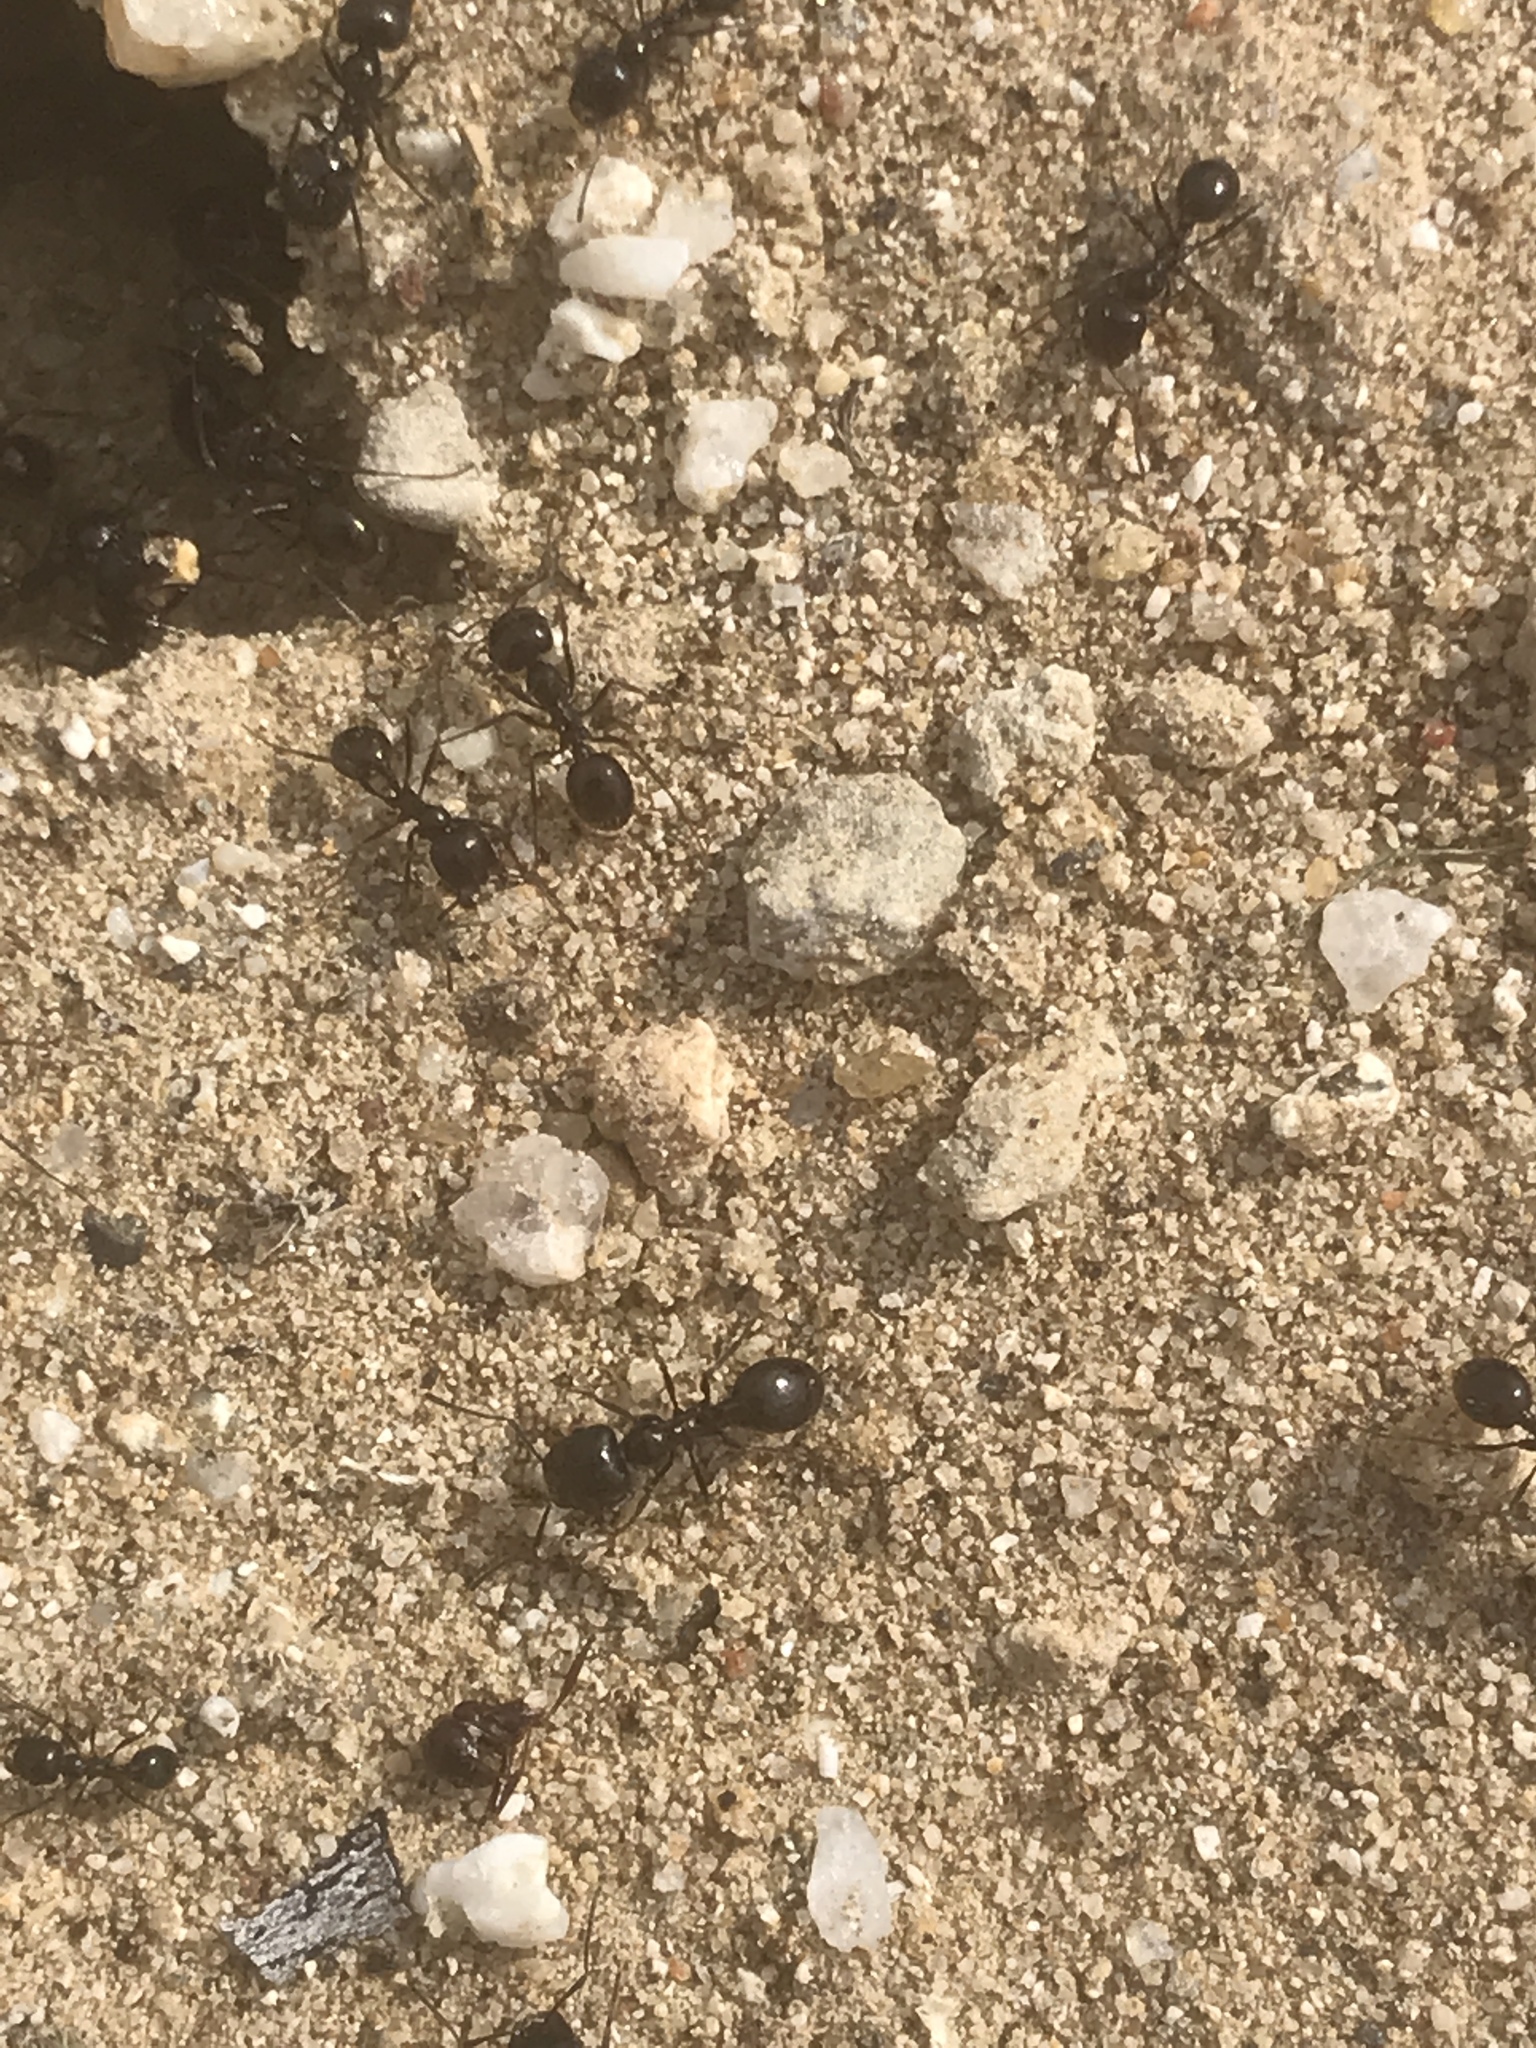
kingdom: Animalia
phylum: Arthropoda
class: Insecta
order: Hymenoptera
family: Formicidae
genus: Messor
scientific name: Messor pergandei
